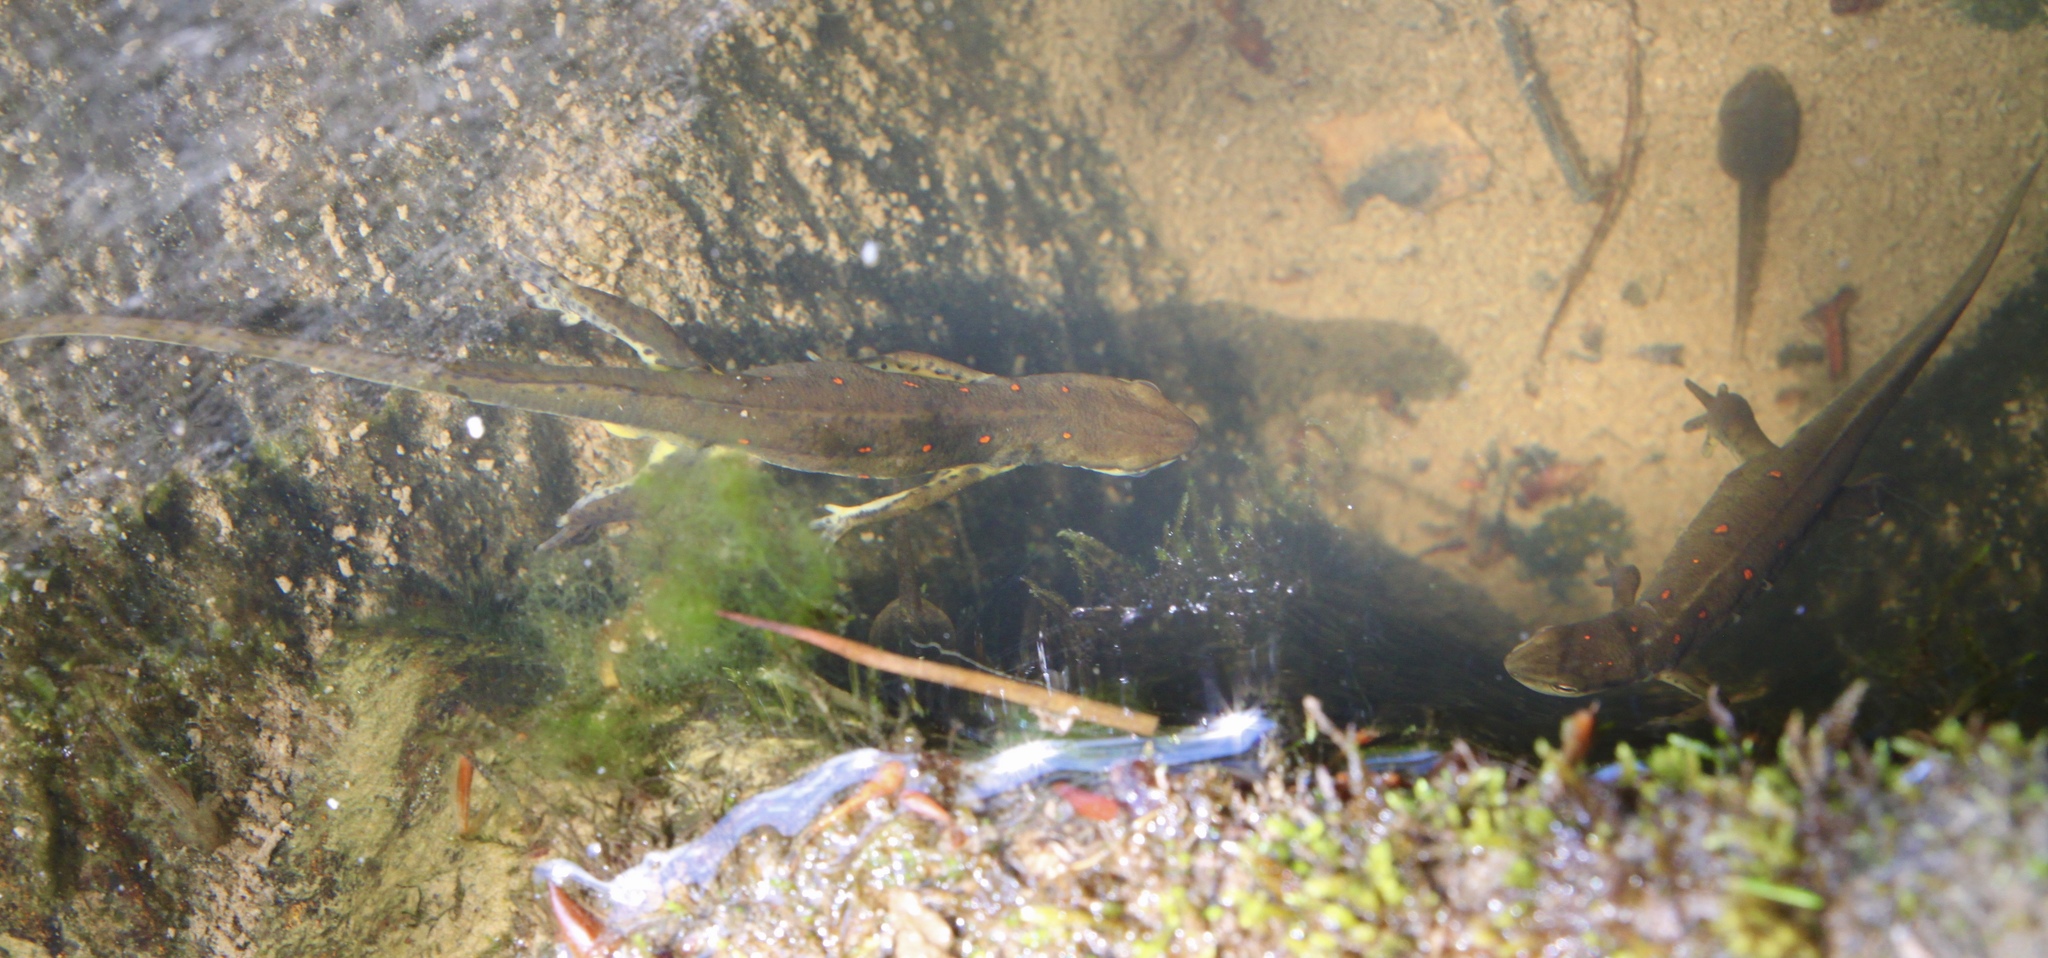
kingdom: Animalia
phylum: Chordata
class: Amphibia
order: Caudata
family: Salamandridae
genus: Notophthalmus
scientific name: Notophthalmus viridescens
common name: Eastern newt
